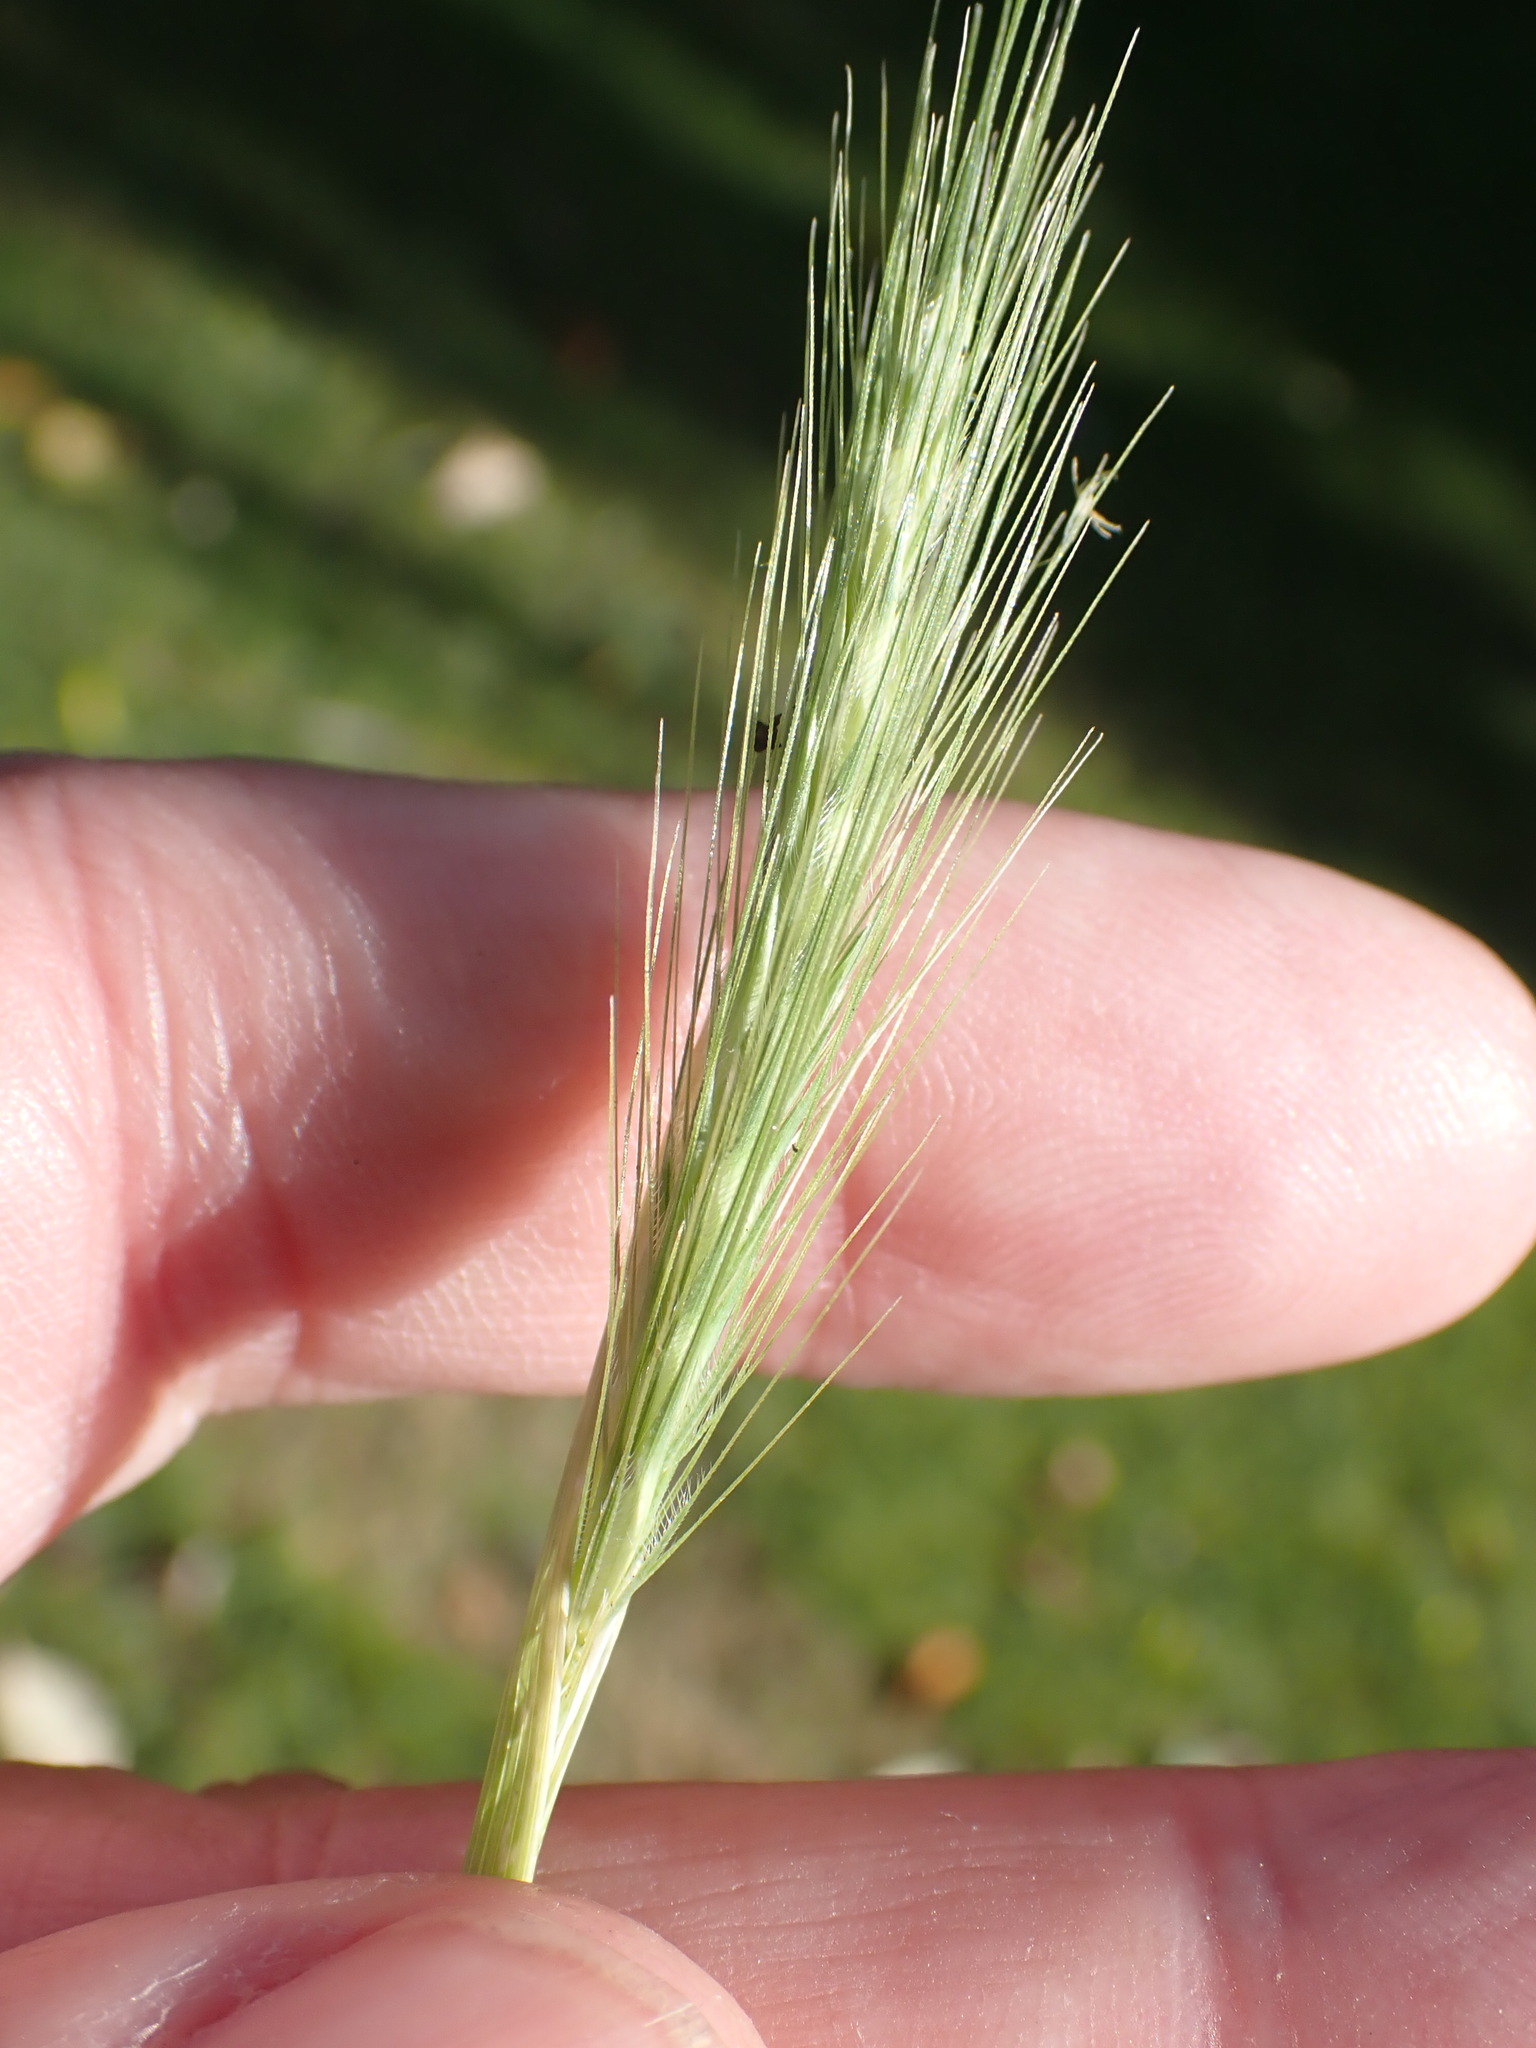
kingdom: Plantae
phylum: Tracheophyta
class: Liliopsida
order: Poales
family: Poaceae
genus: Hordeum
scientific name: Hordeum murinum
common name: Wall barley
